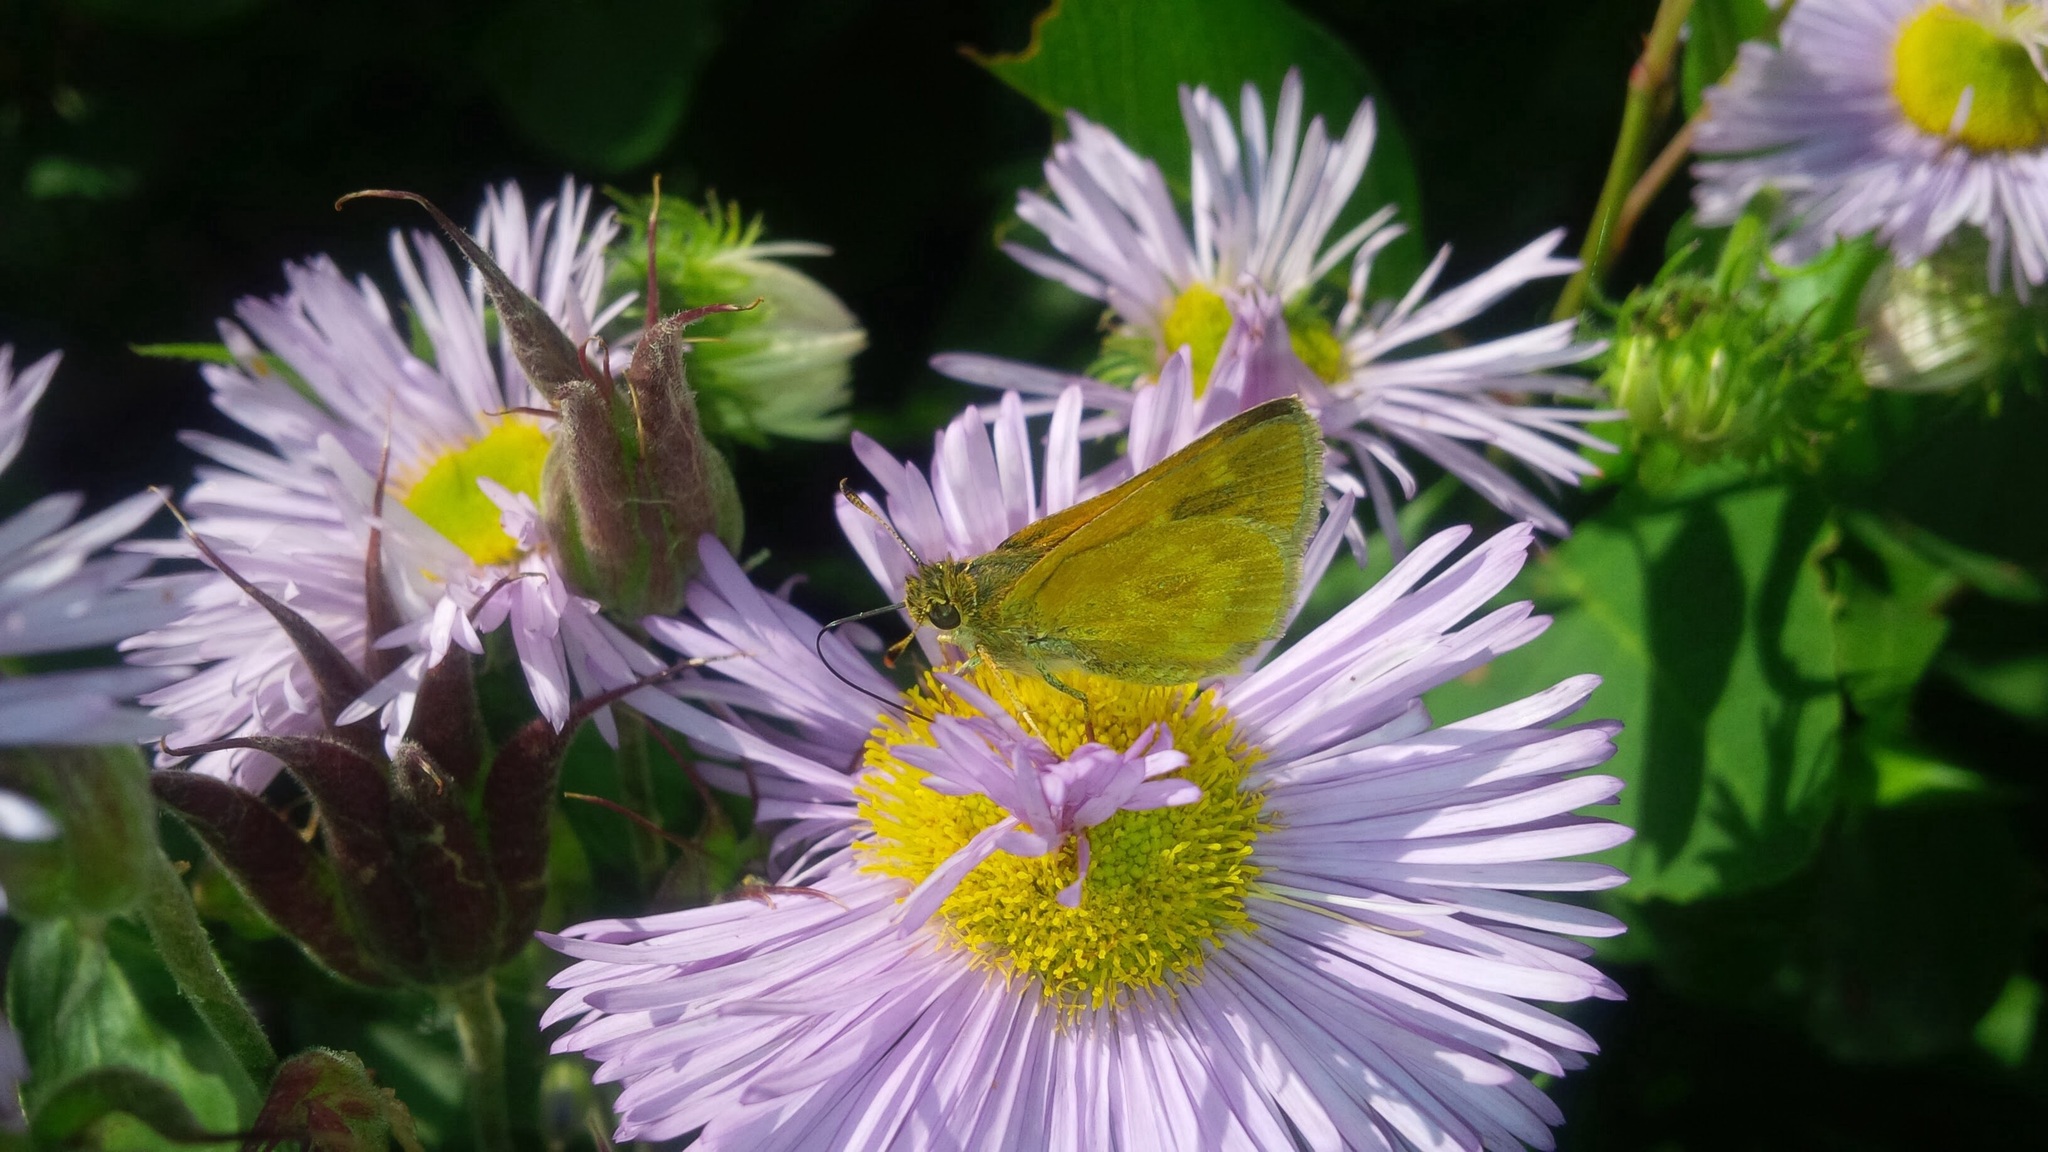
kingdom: Animalia
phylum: Arthropoda
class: Insecta
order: Lepidoptera
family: Hesperiidae
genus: Polites
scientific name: Polites mystic
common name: Long dash
